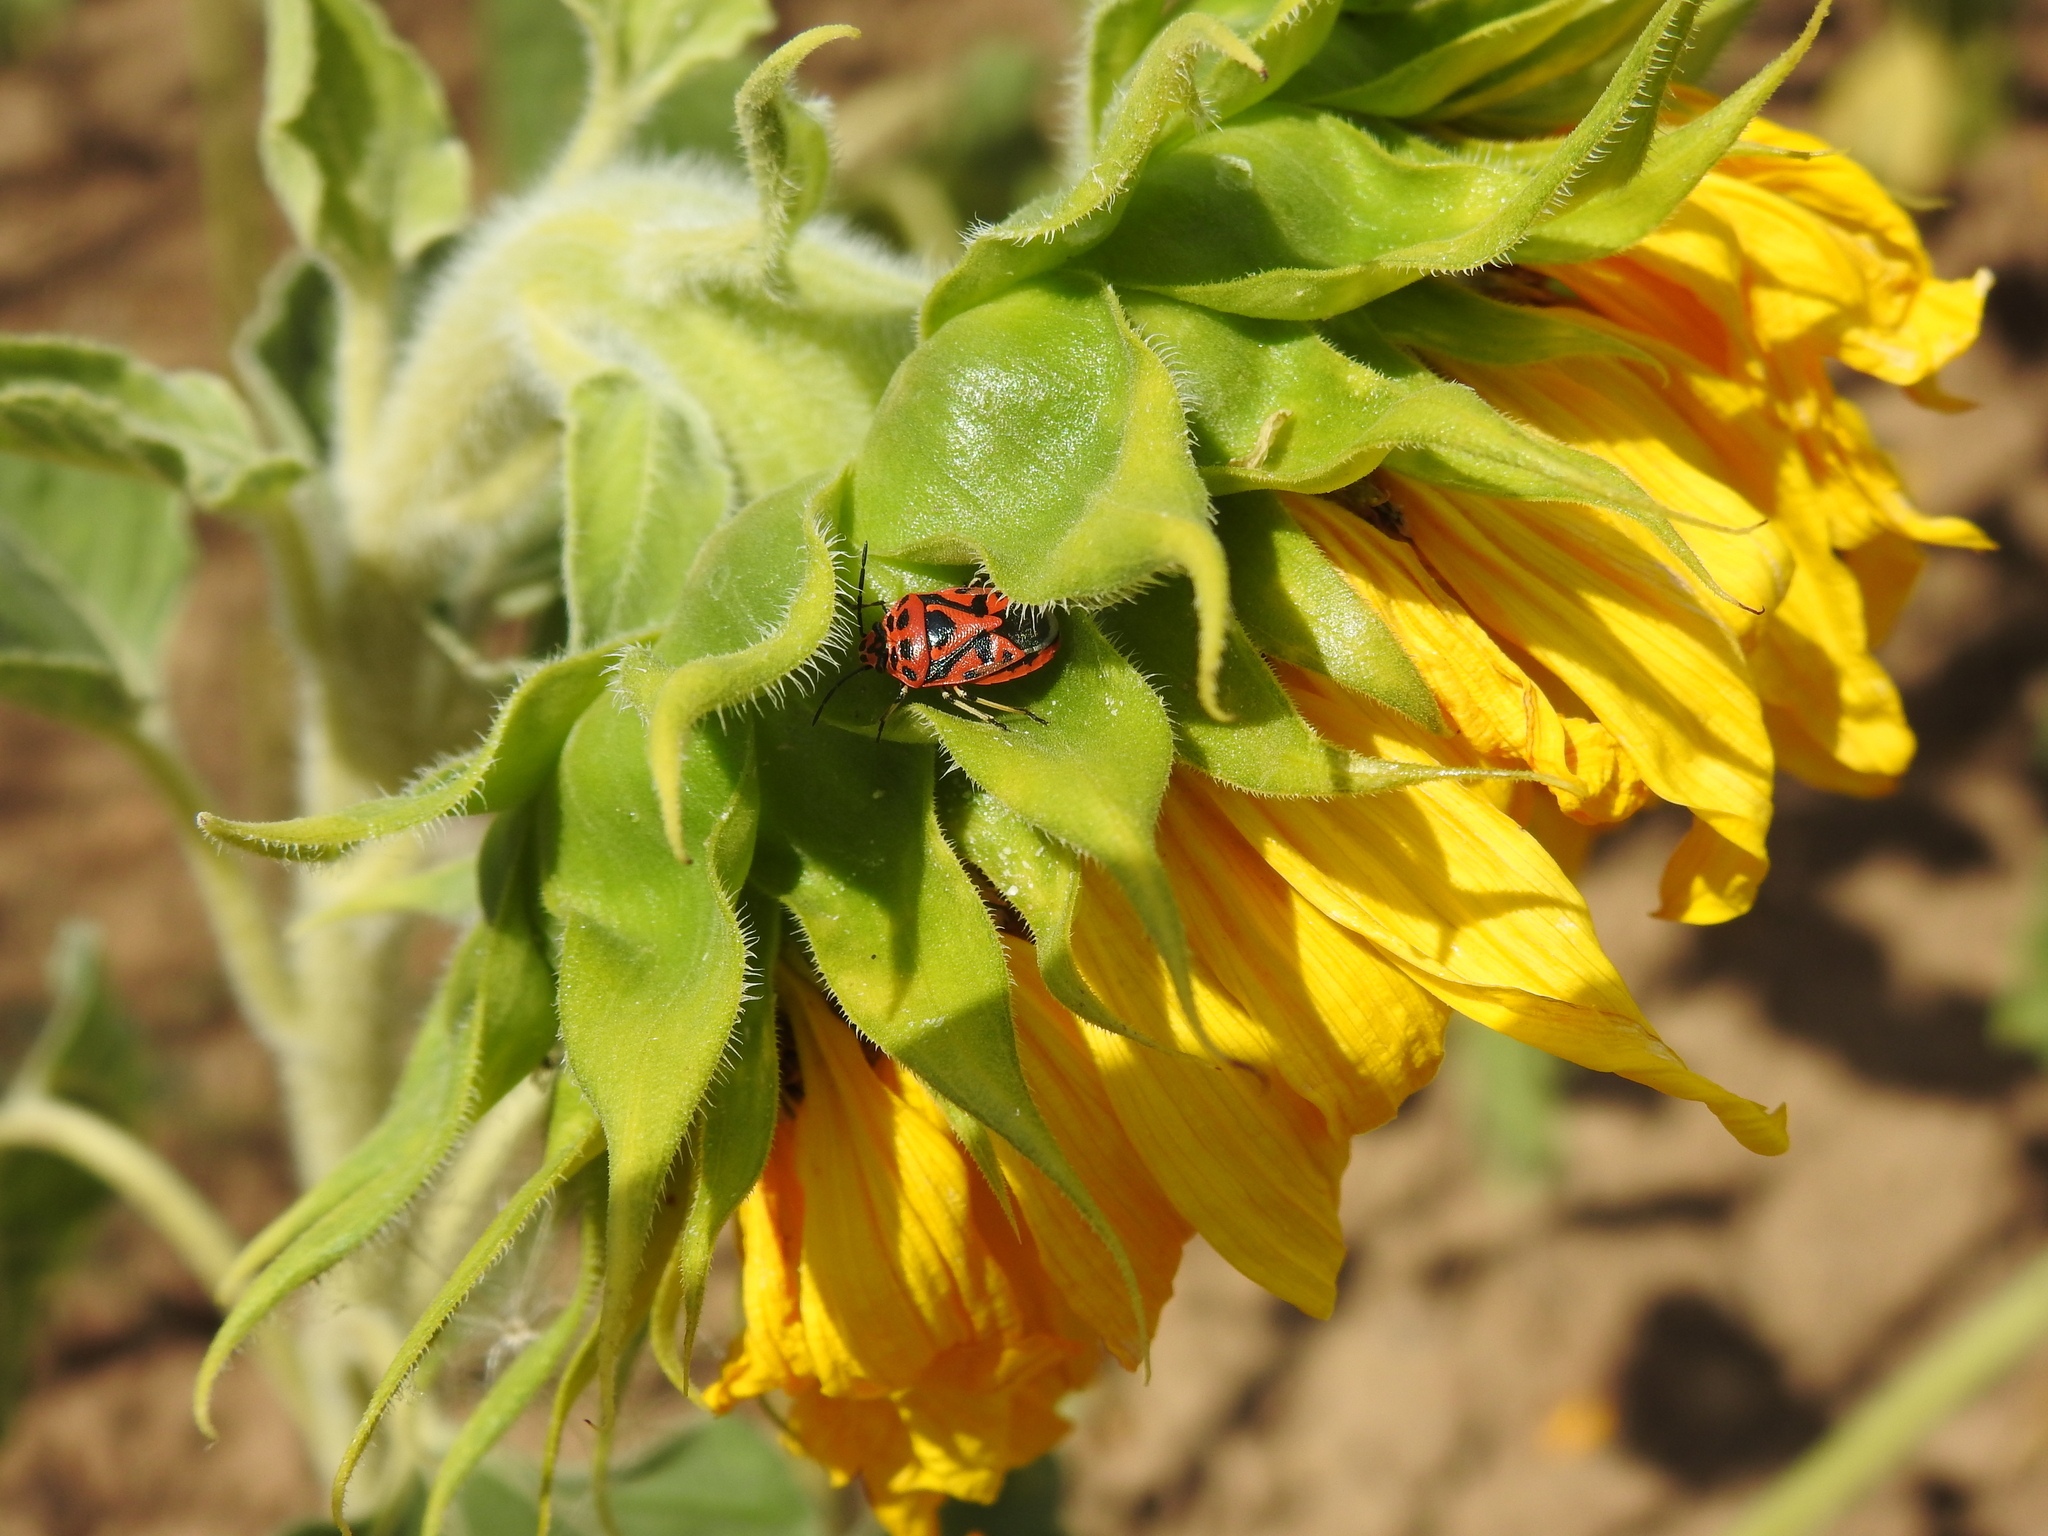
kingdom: Animalia
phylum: Arthropoda
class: Insecta
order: Hemiptera
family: Pentatomidae
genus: Eurydema
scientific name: Eurydema ornata
